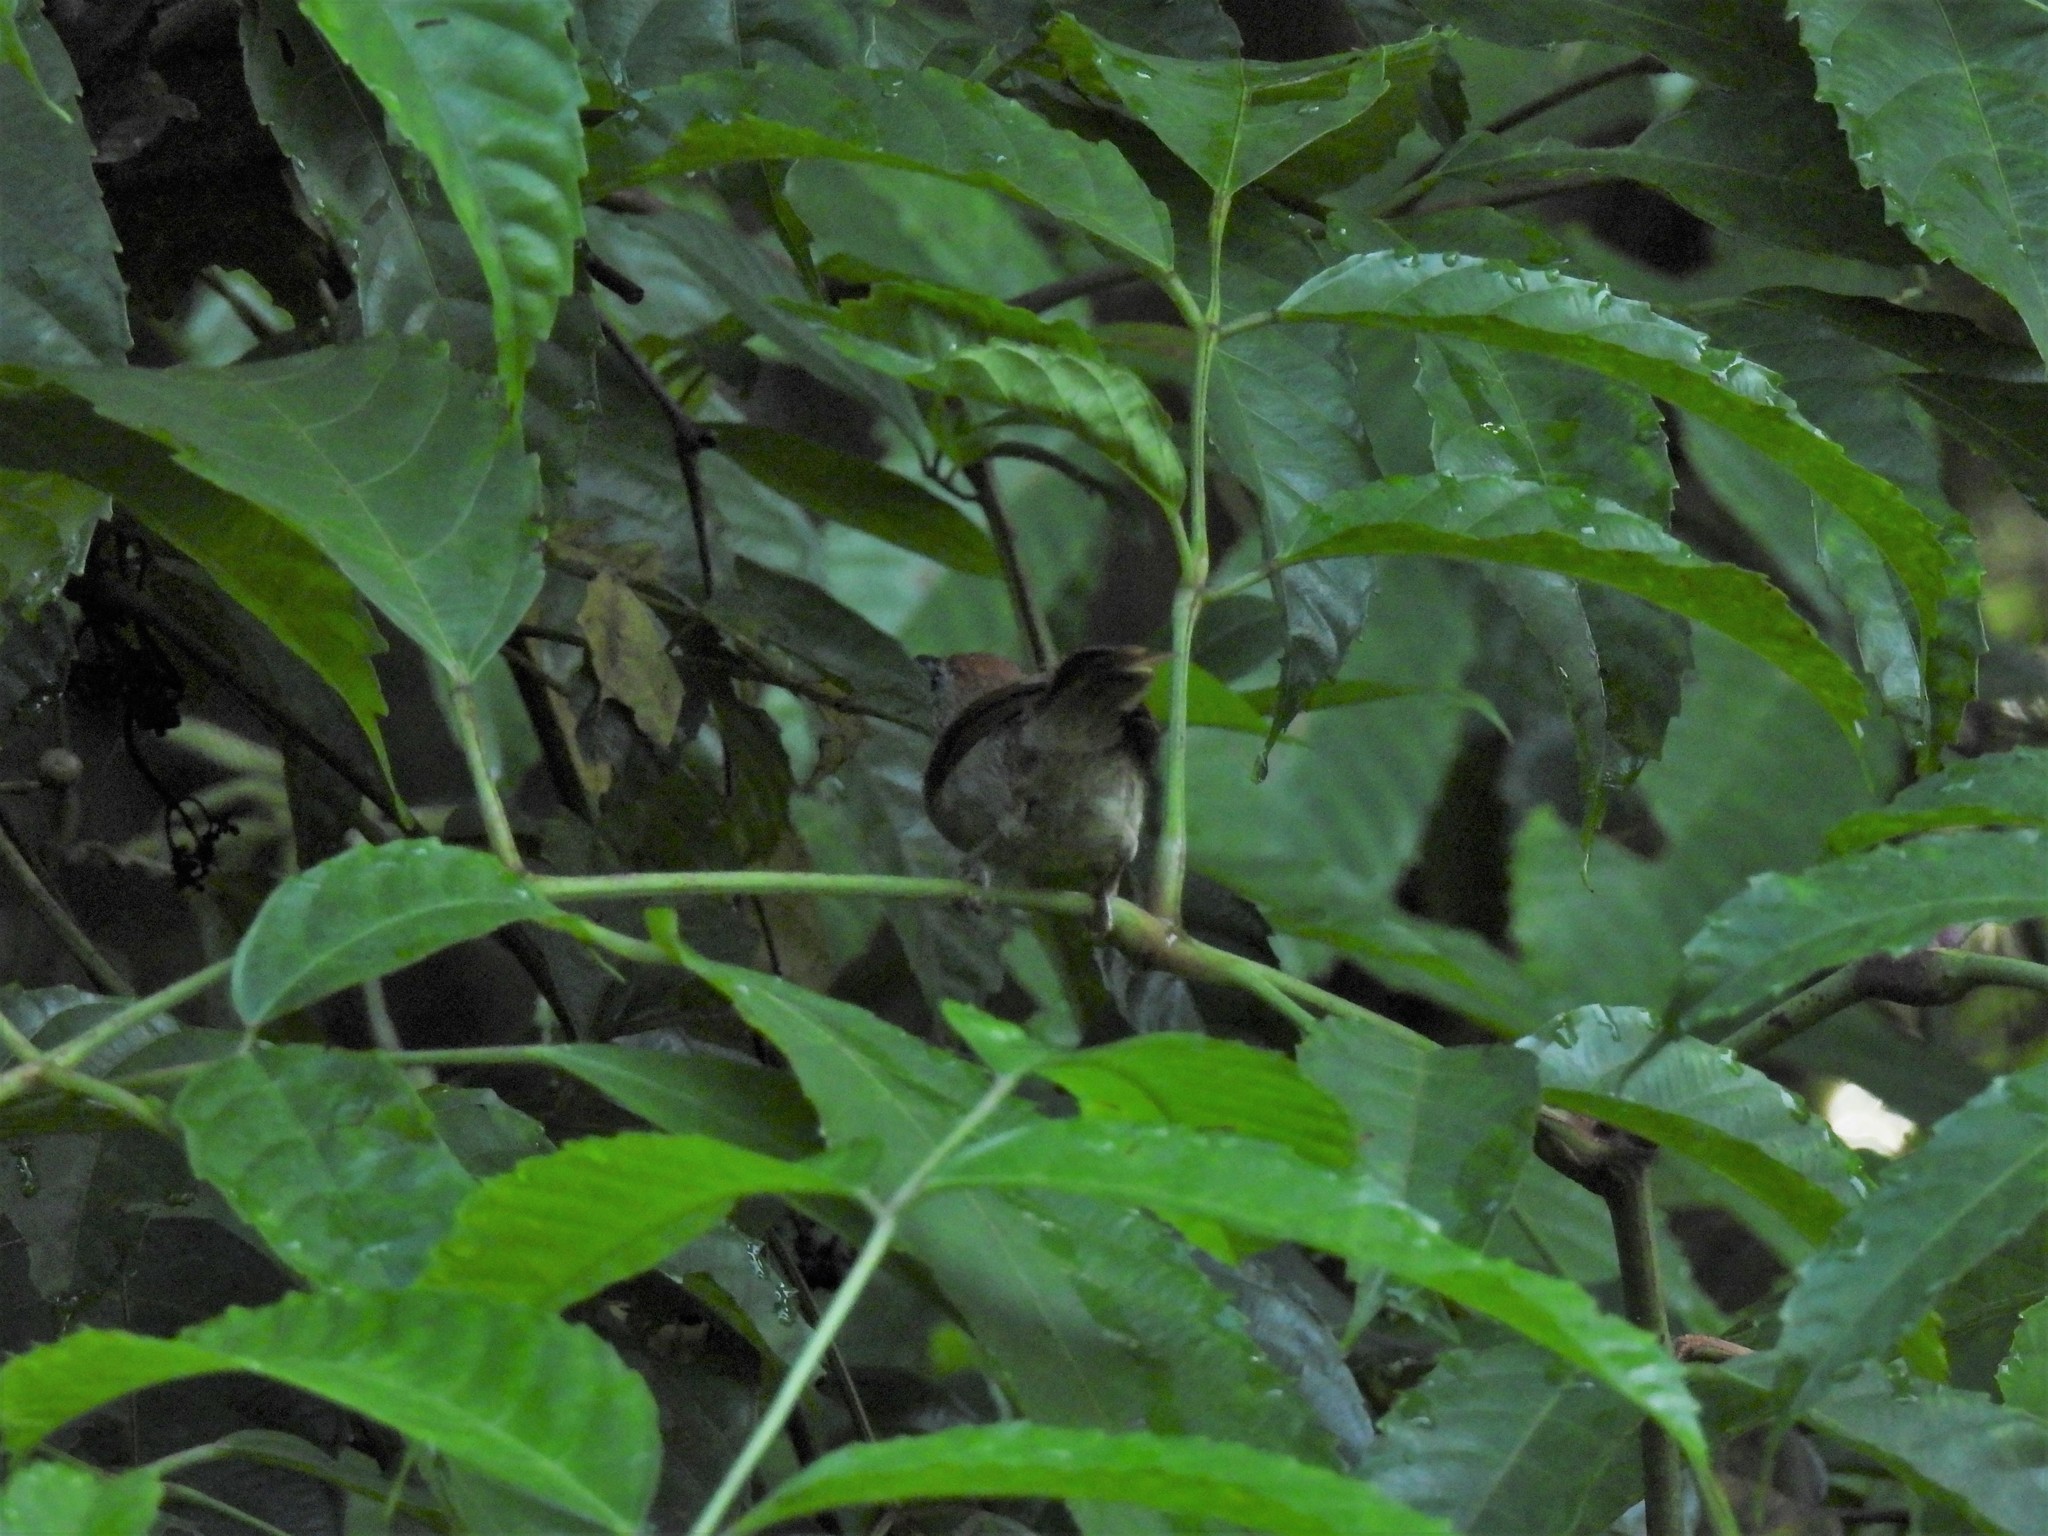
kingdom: Animalia
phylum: Chordata
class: Aves
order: Passeriformes
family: Timaliidae
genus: Macronus
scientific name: Macronus gularis
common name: Striped tit-babbler
